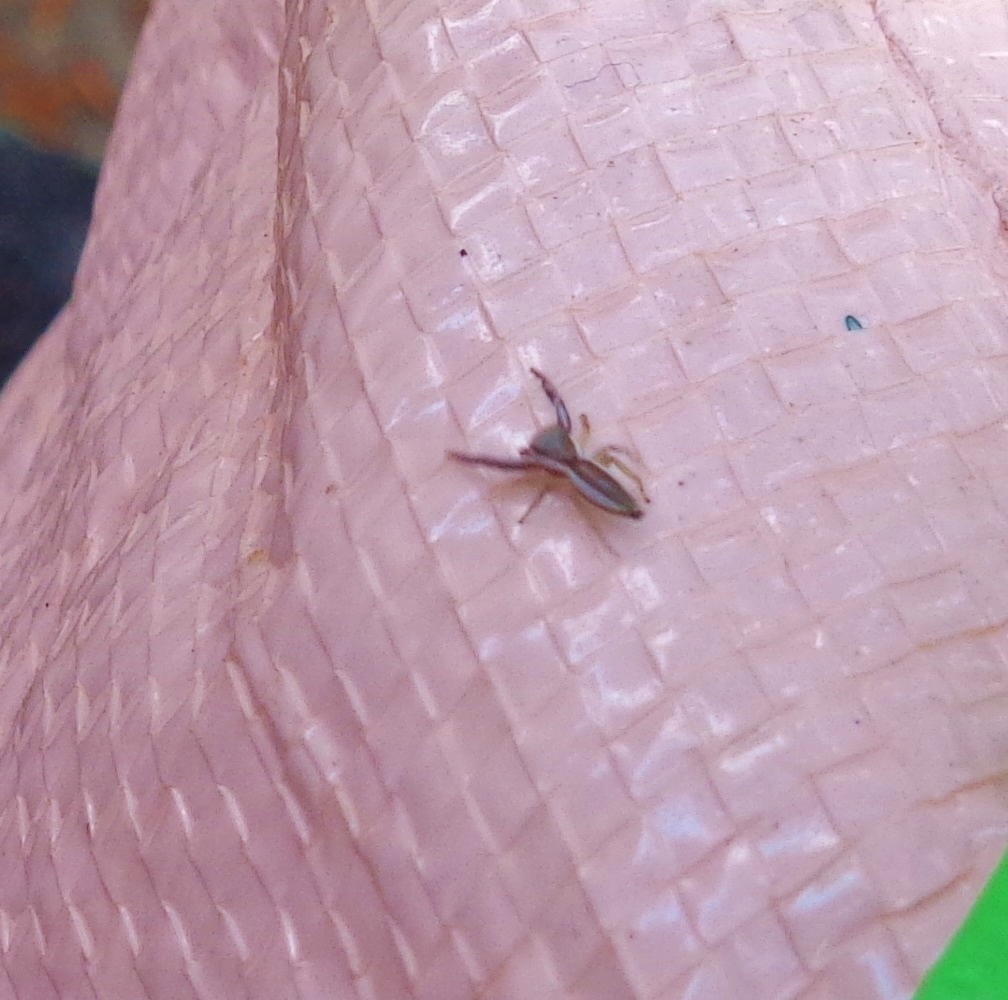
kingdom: Animalia
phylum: Arthropoda
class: Arachnida
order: Araneae
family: Salticidae
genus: Hentzia
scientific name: Hentzia palmarum
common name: Common hentz jumping spider
